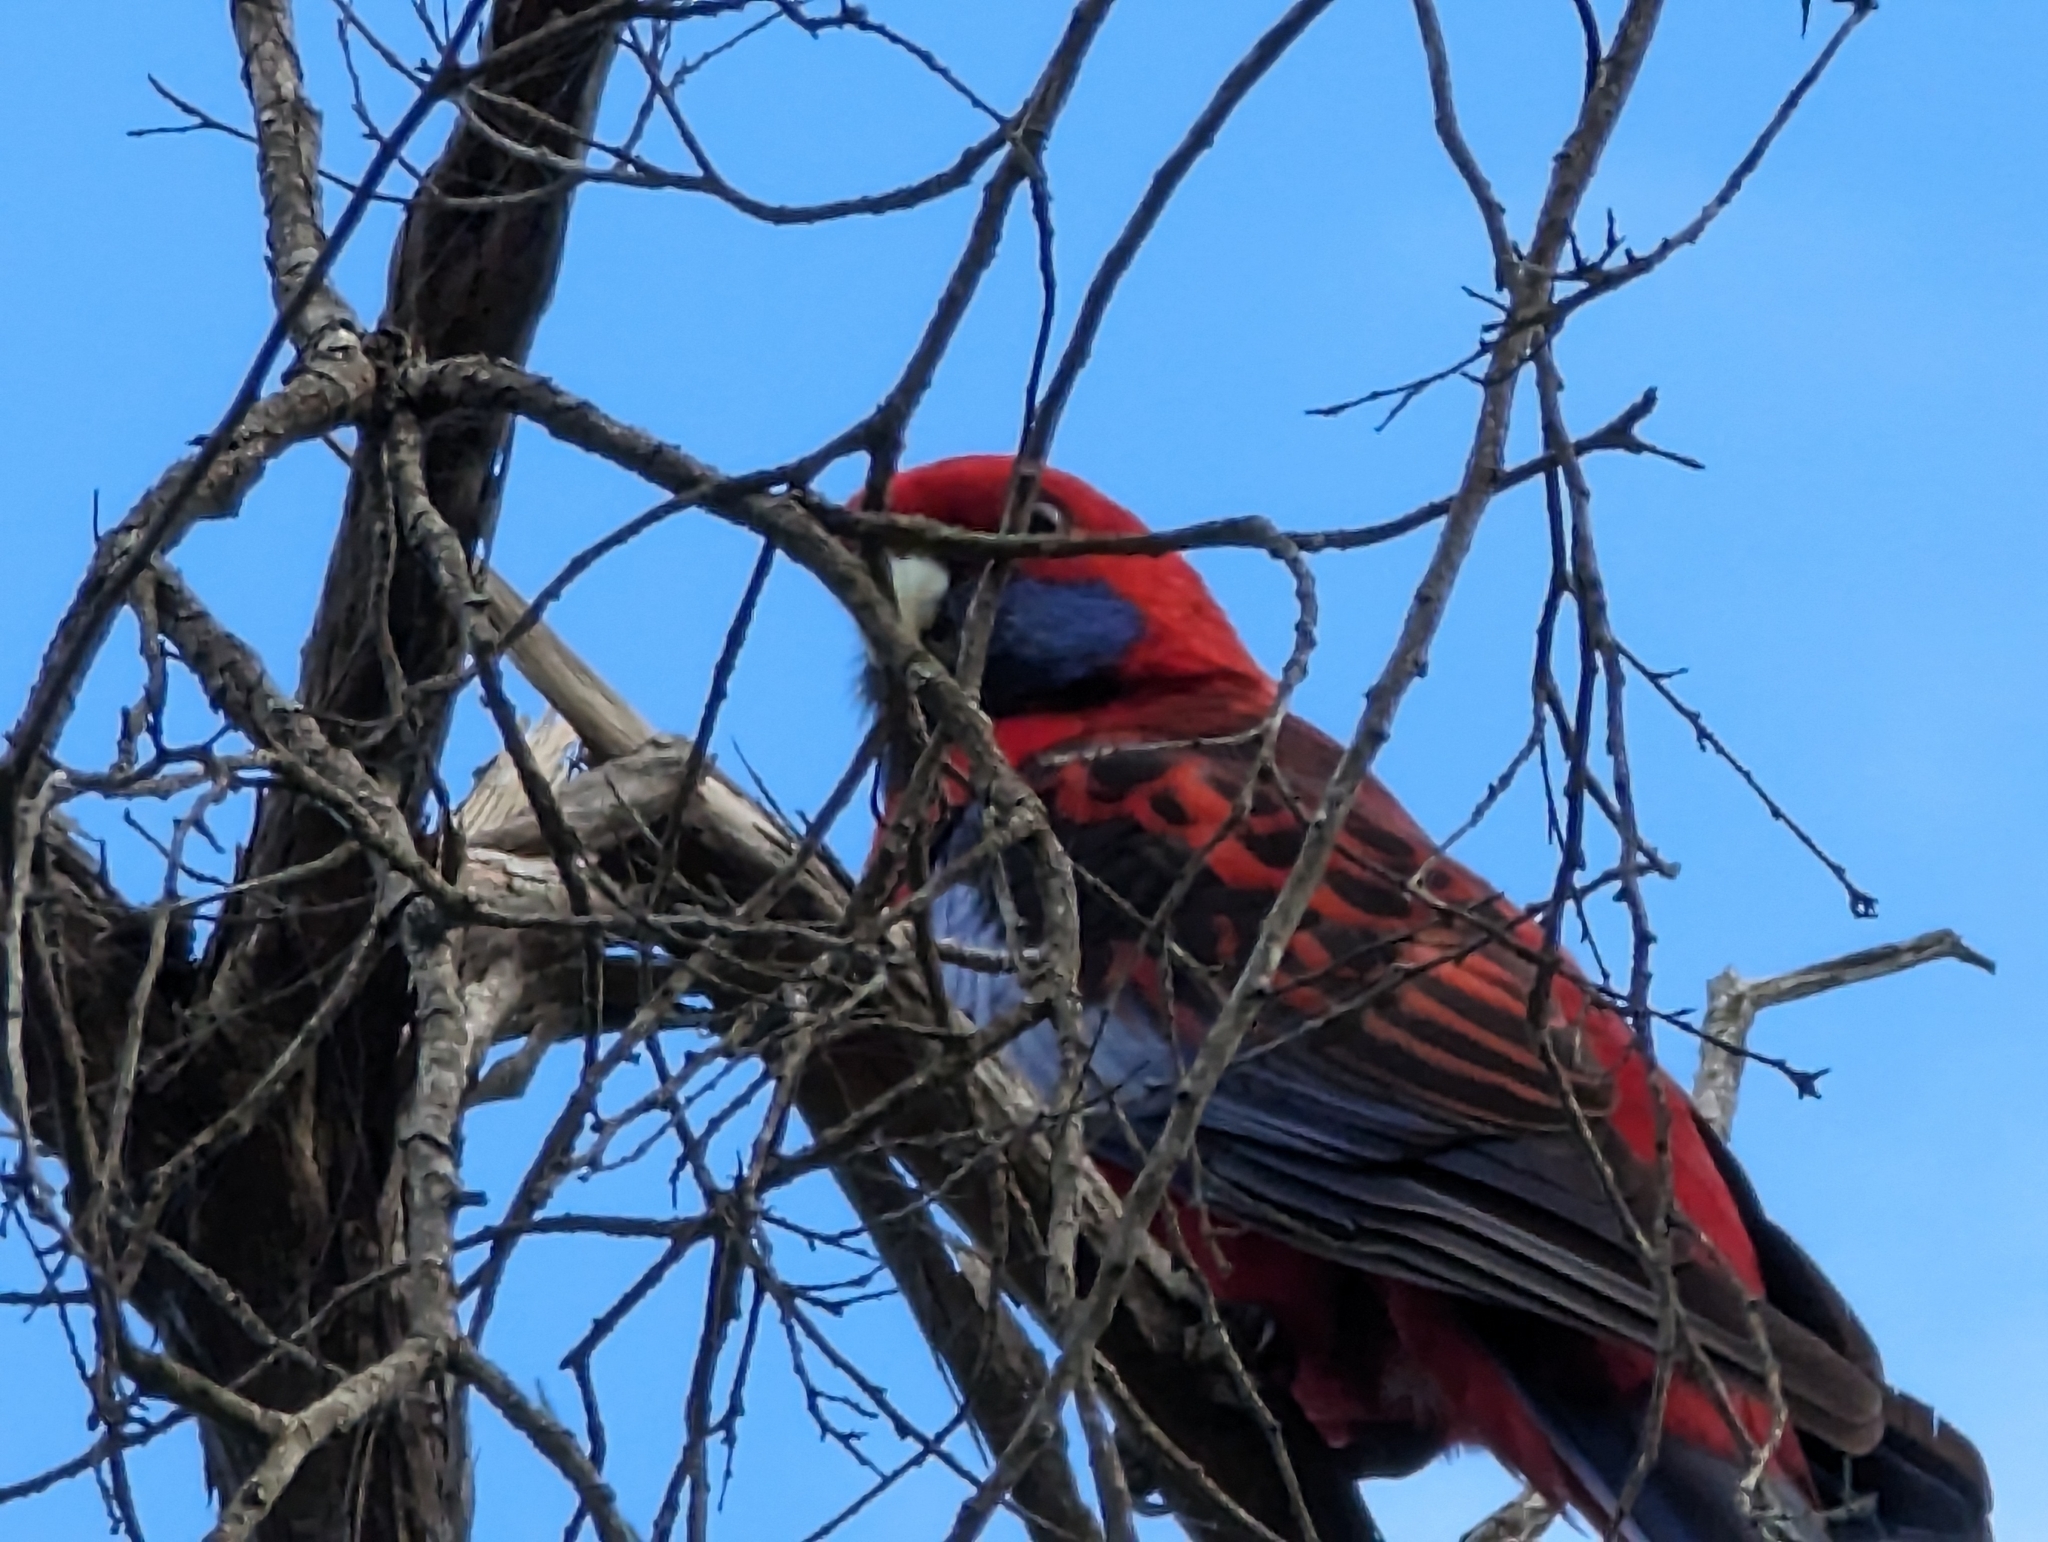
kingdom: Animalia
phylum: Chordata
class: Aves
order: Psittaciformes
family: Psittacidae
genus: Platycercus
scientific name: Platycercus elegans
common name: Crimson rosella
